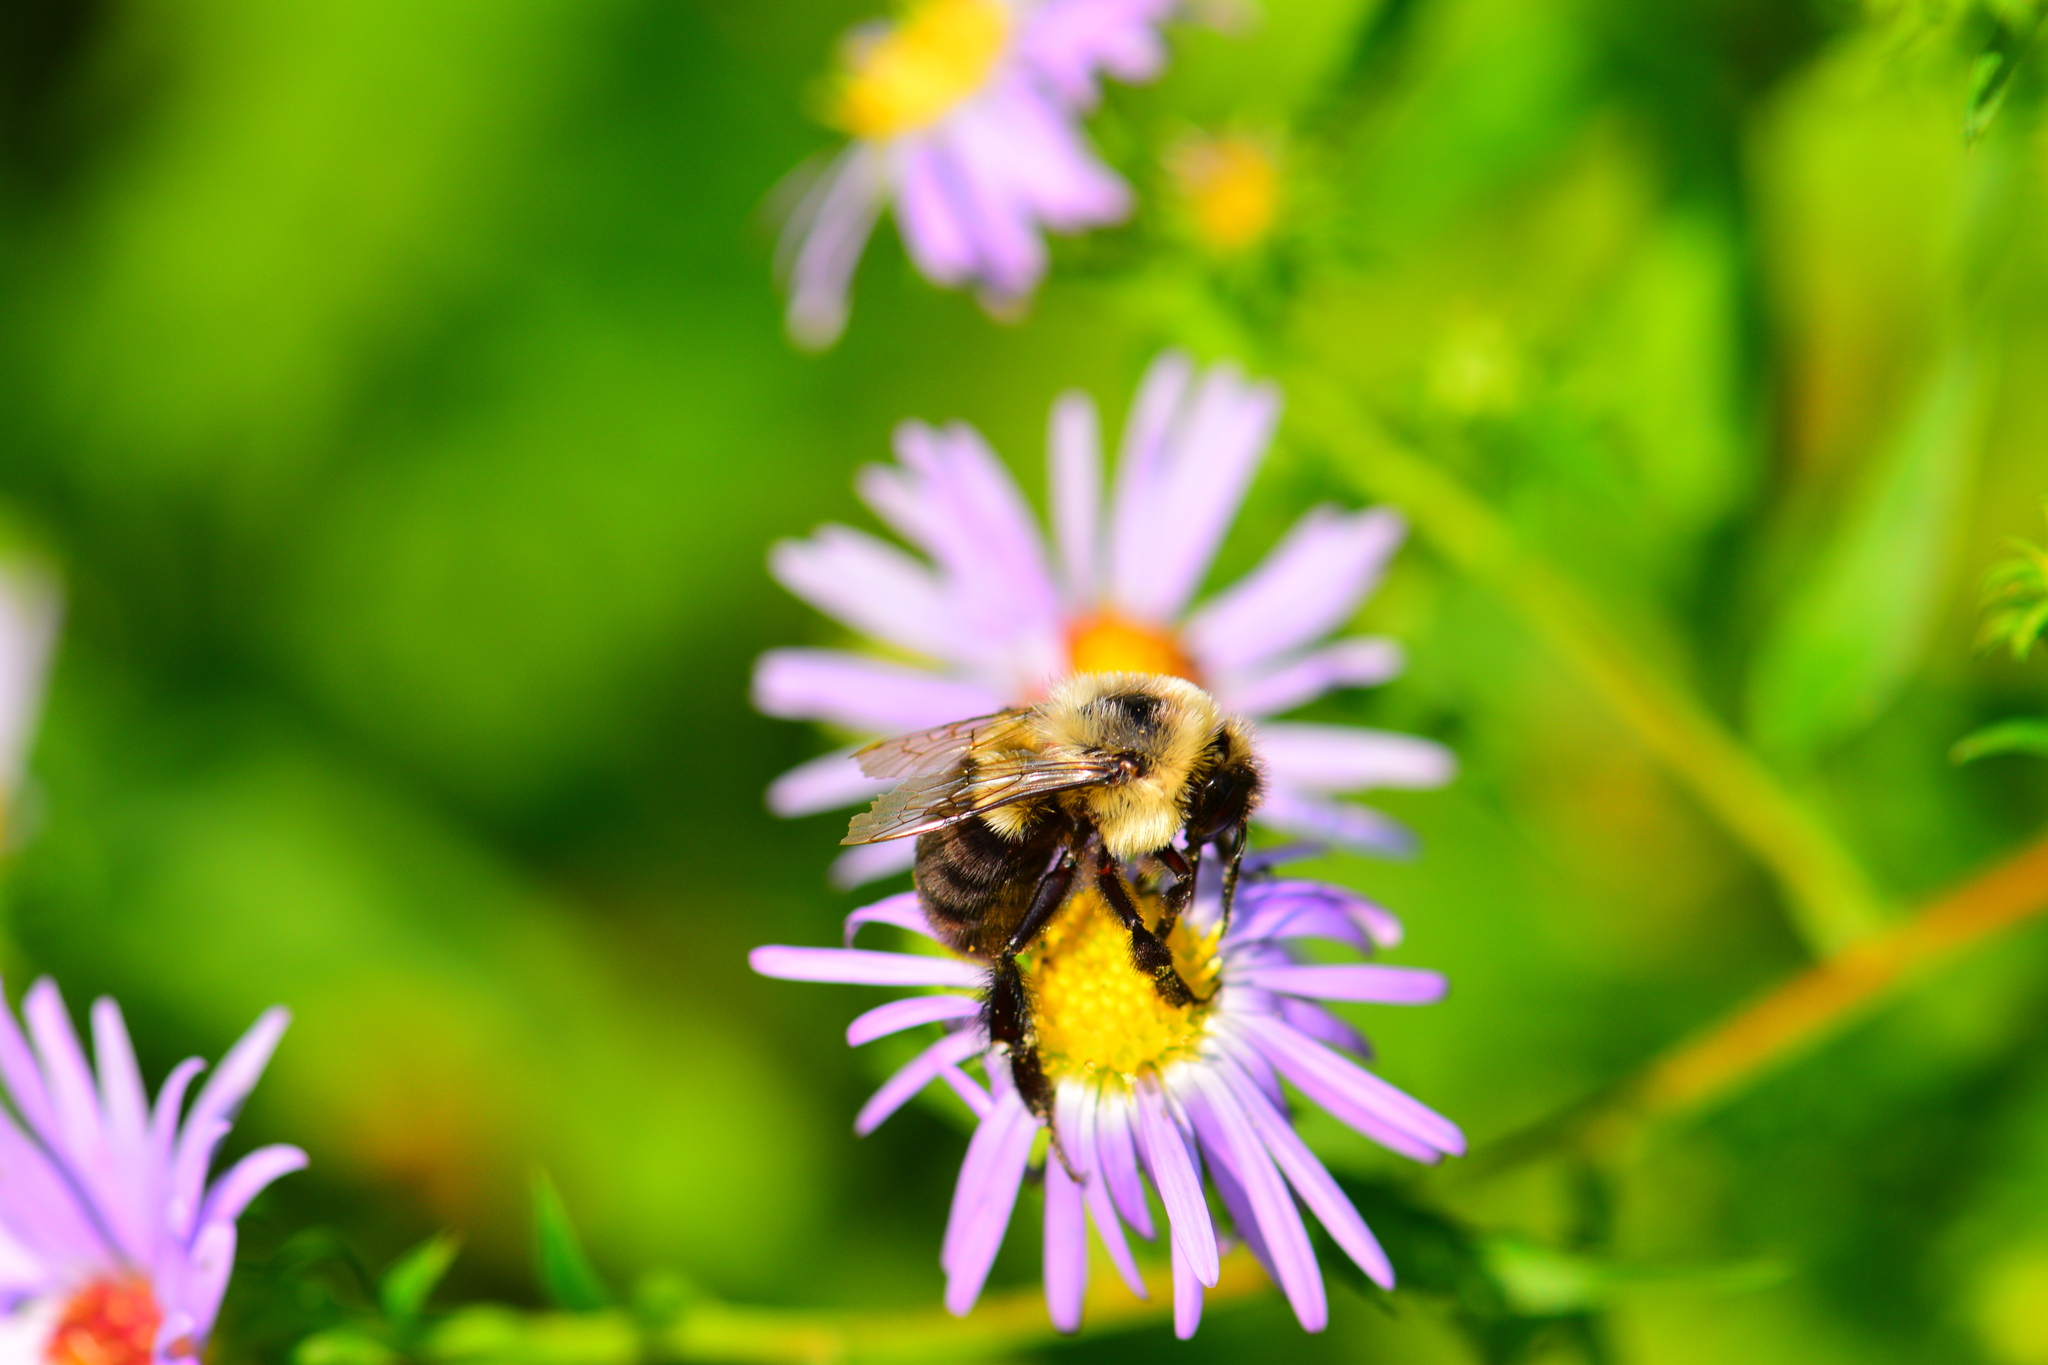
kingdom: Animalia
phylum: Arthropoda
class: Insecta
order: Hymenoptera
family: Apidae
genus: Bombus
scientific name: Bombus impatiens
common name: Common eastern bumble bee
